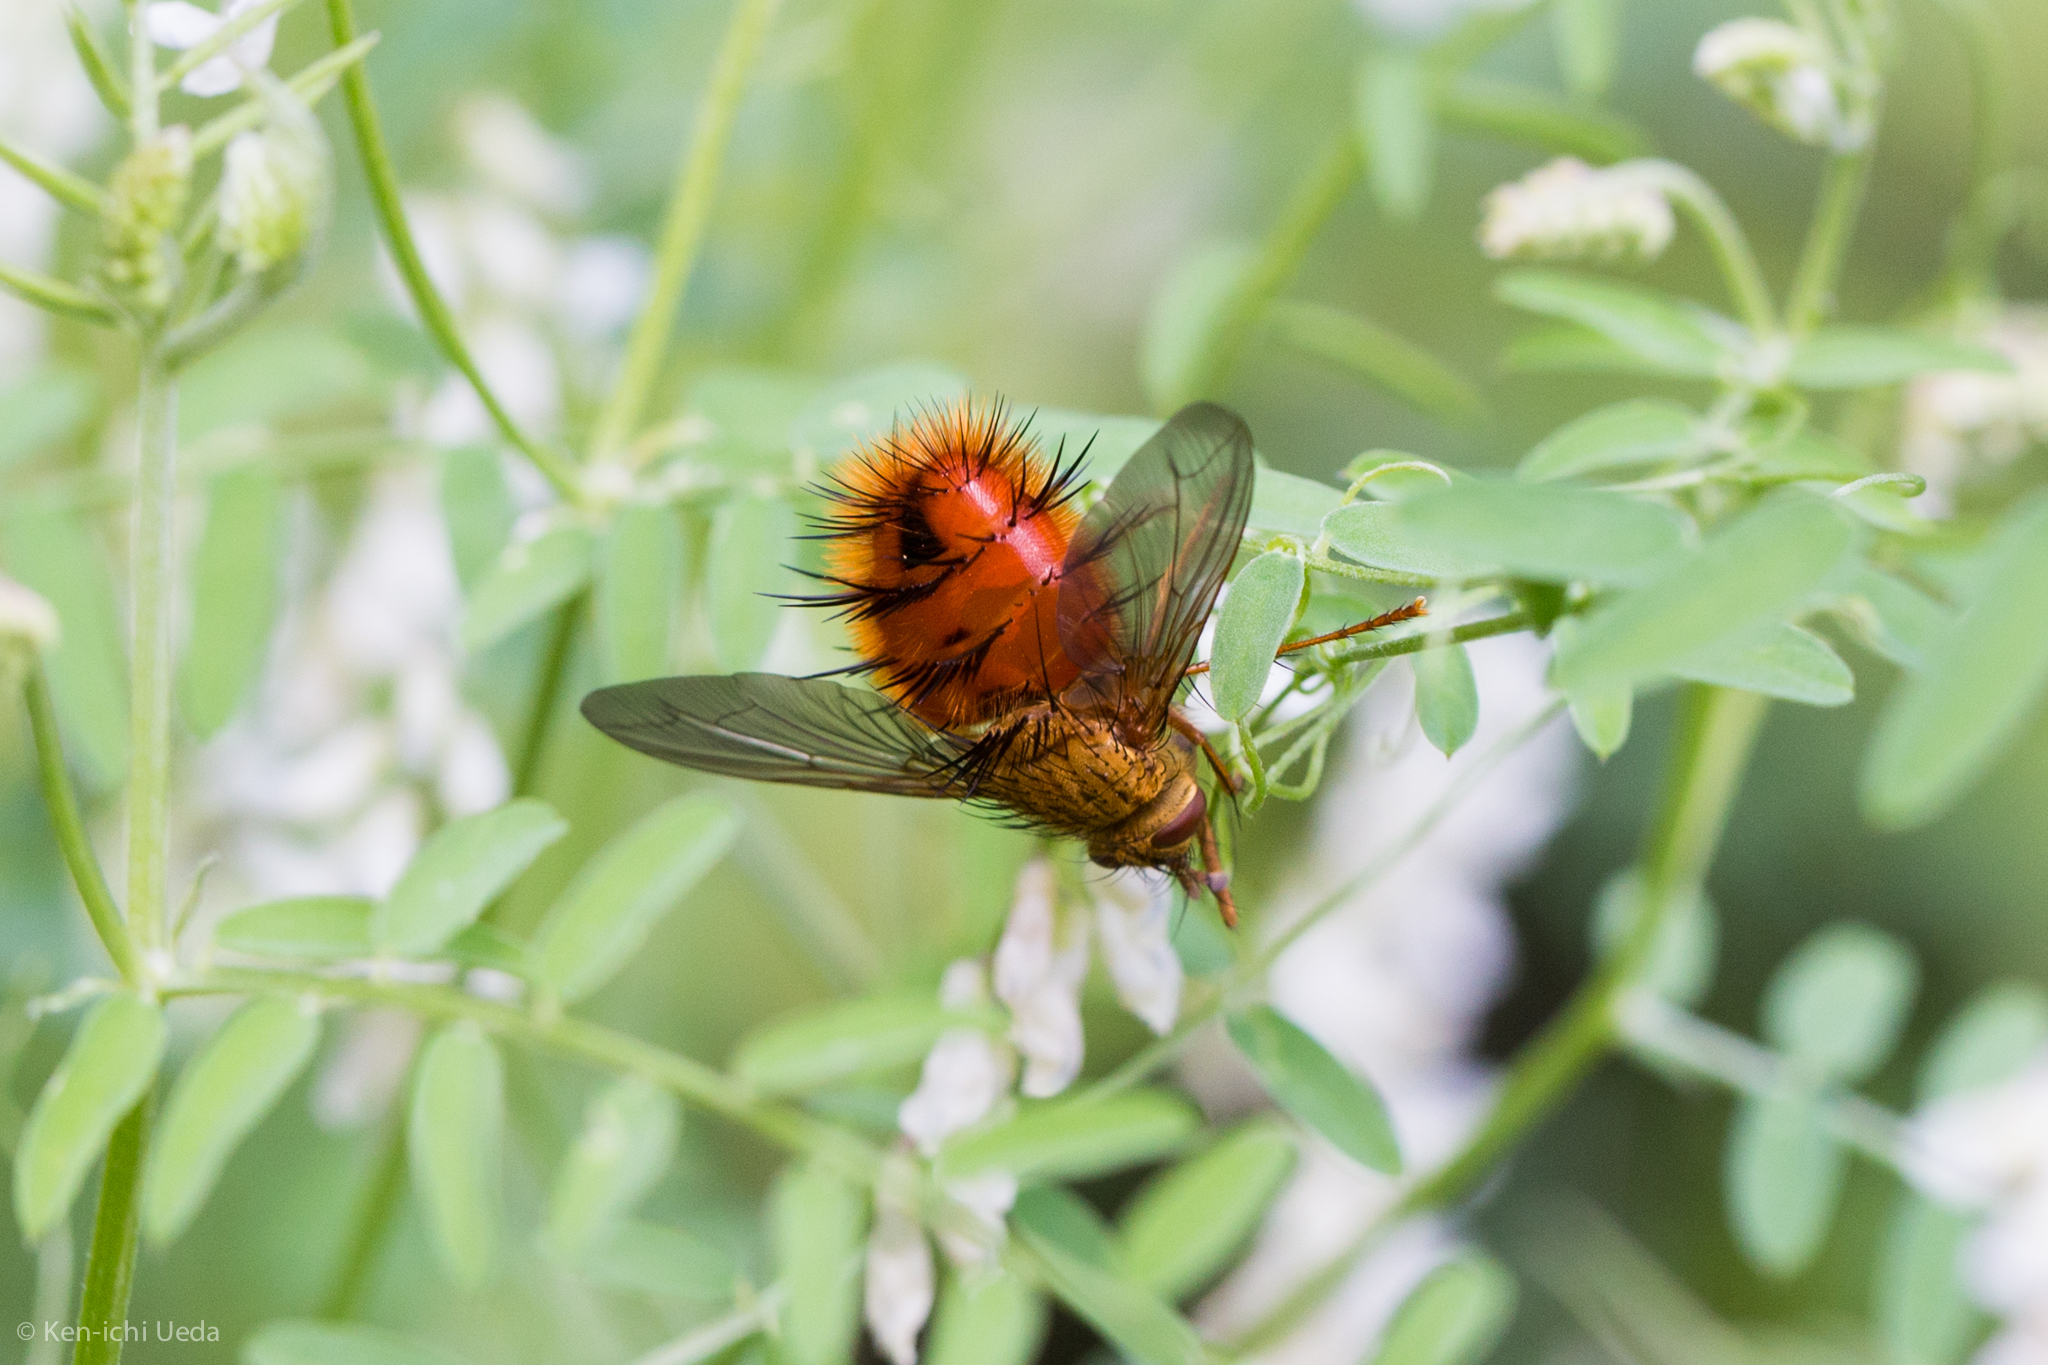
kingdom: Animalia
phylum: Arthropoda
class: Insecta
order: Diptera
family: Tachinidae
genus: Adejeania
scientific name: Adejeania vexatrix
